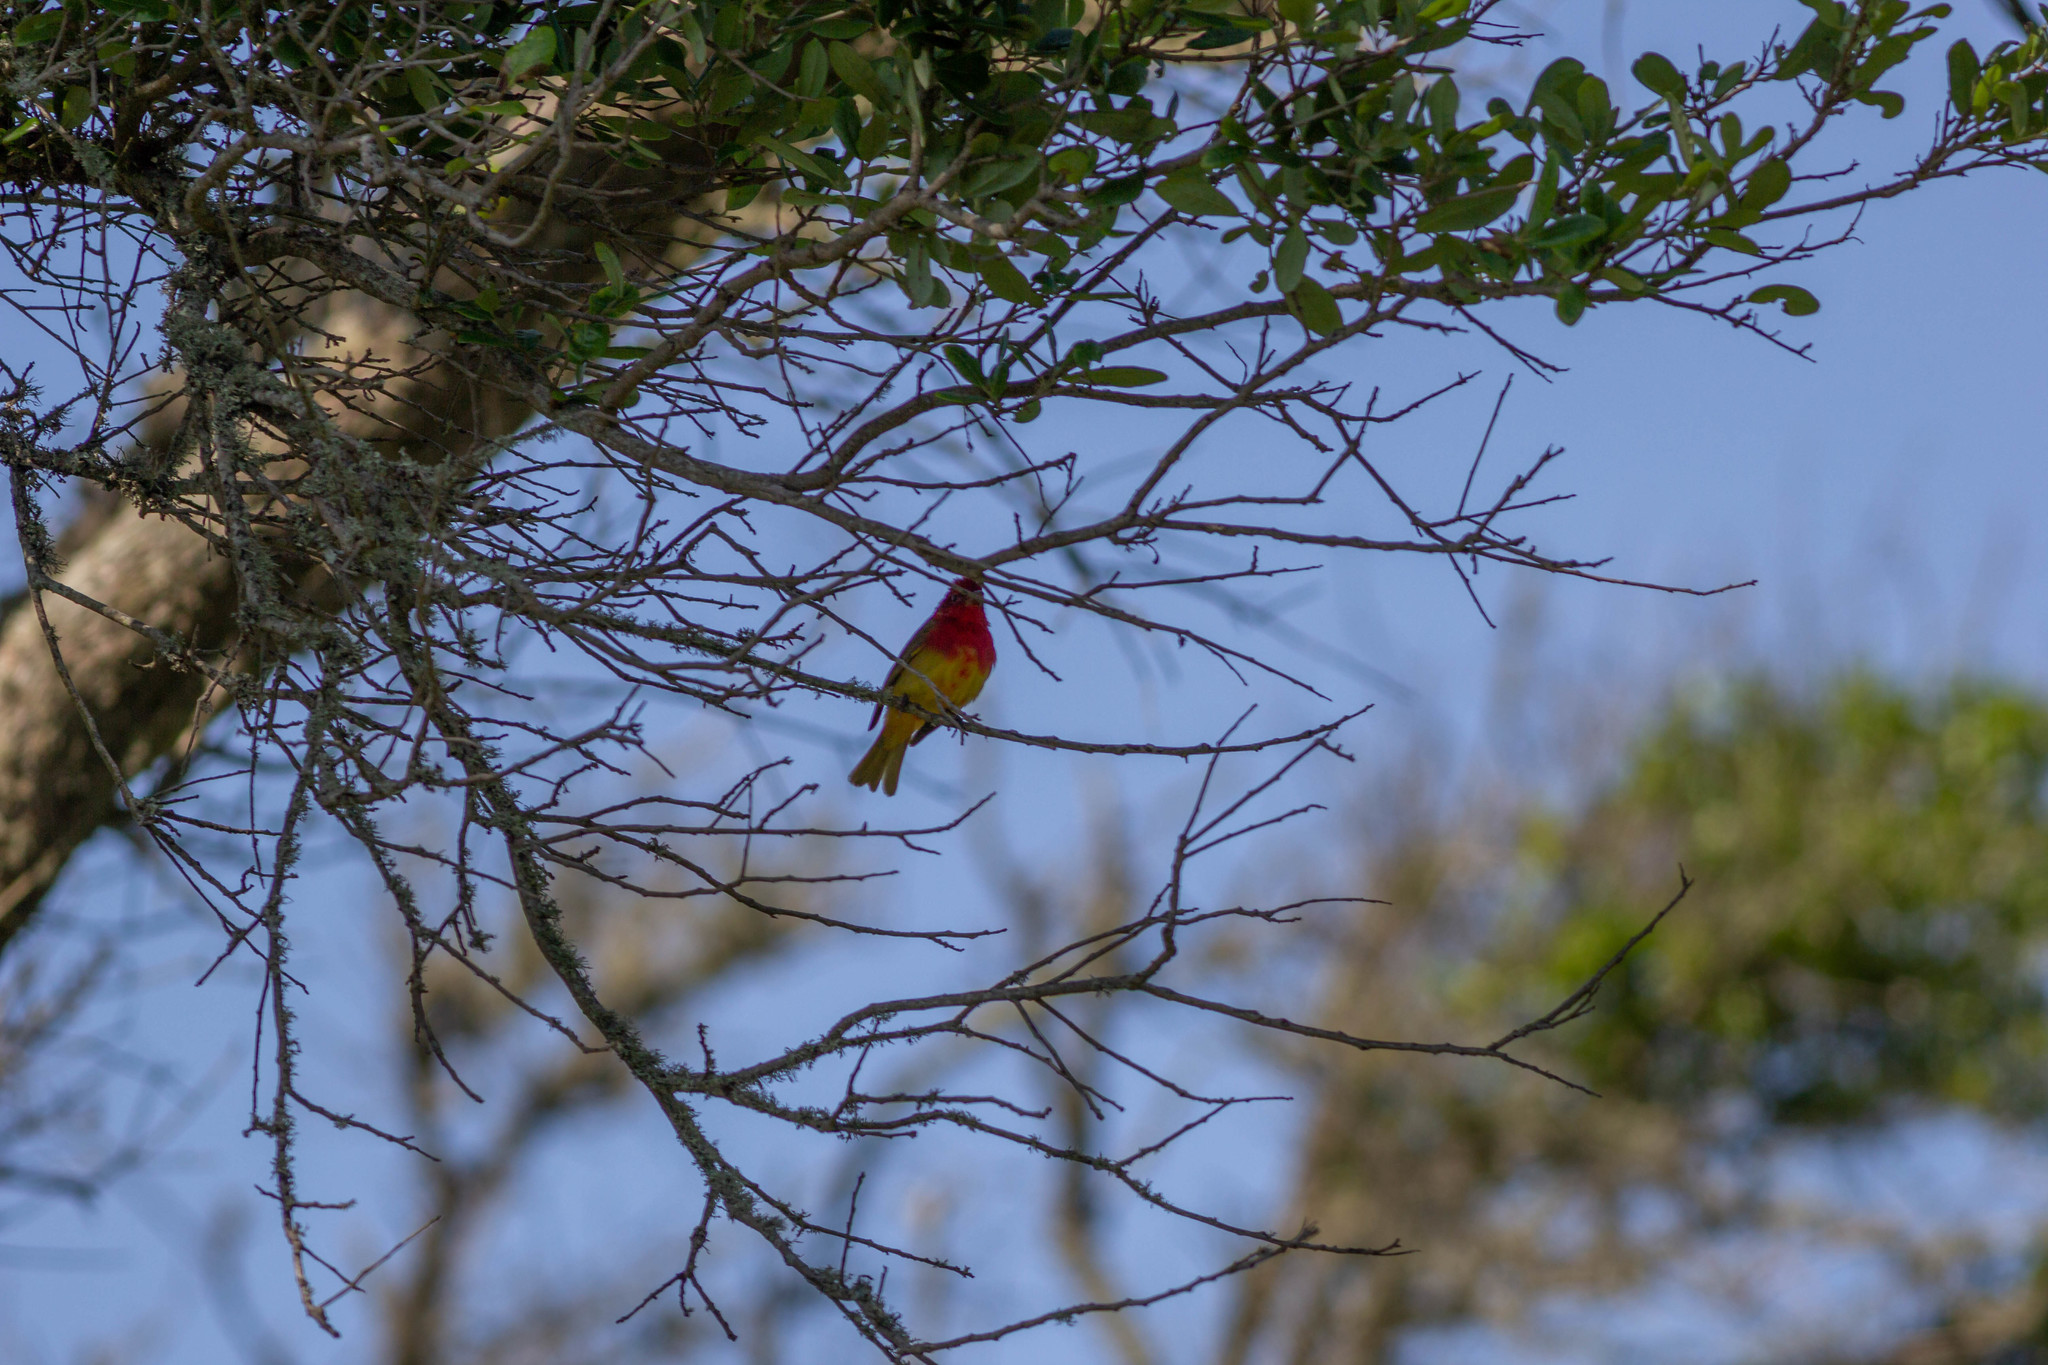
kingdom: Animalia
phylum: Chordata
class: Aves
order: Passeriformes
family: Cardinalidae
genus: Piranga
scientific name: Piranga rubra
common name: Summer tanager
